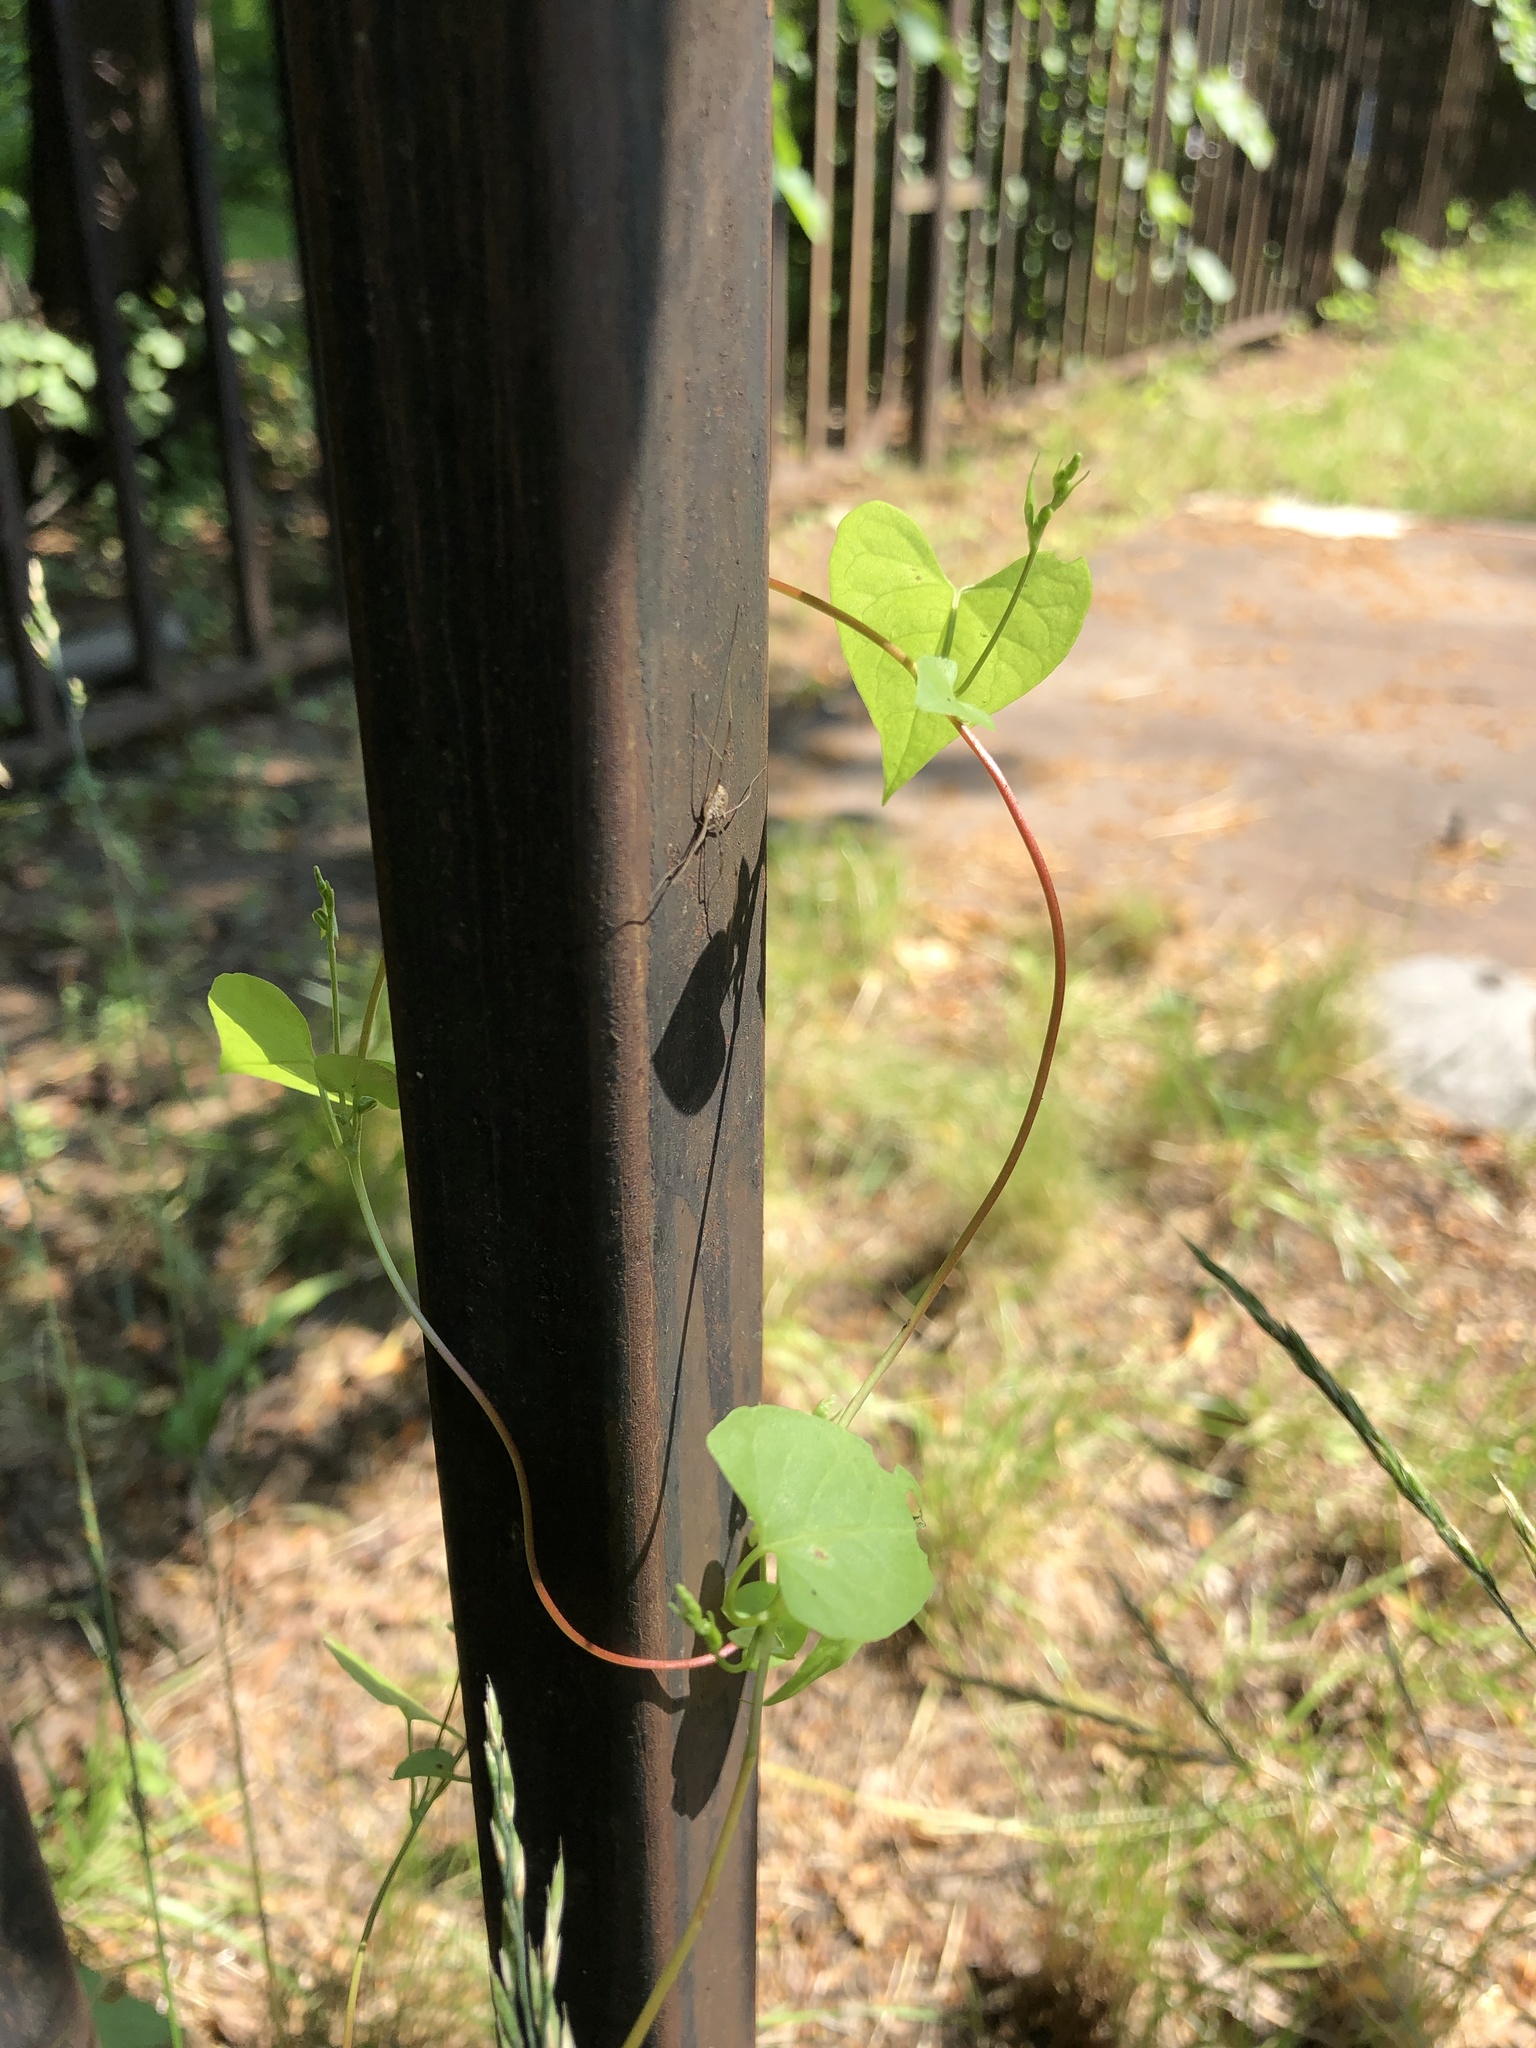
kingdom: Plantae
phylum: Tracheophyta
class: Magnoliopsida
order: Caryophyllales
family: Polygonaceae
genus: Fallopia
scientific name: Fallopia
